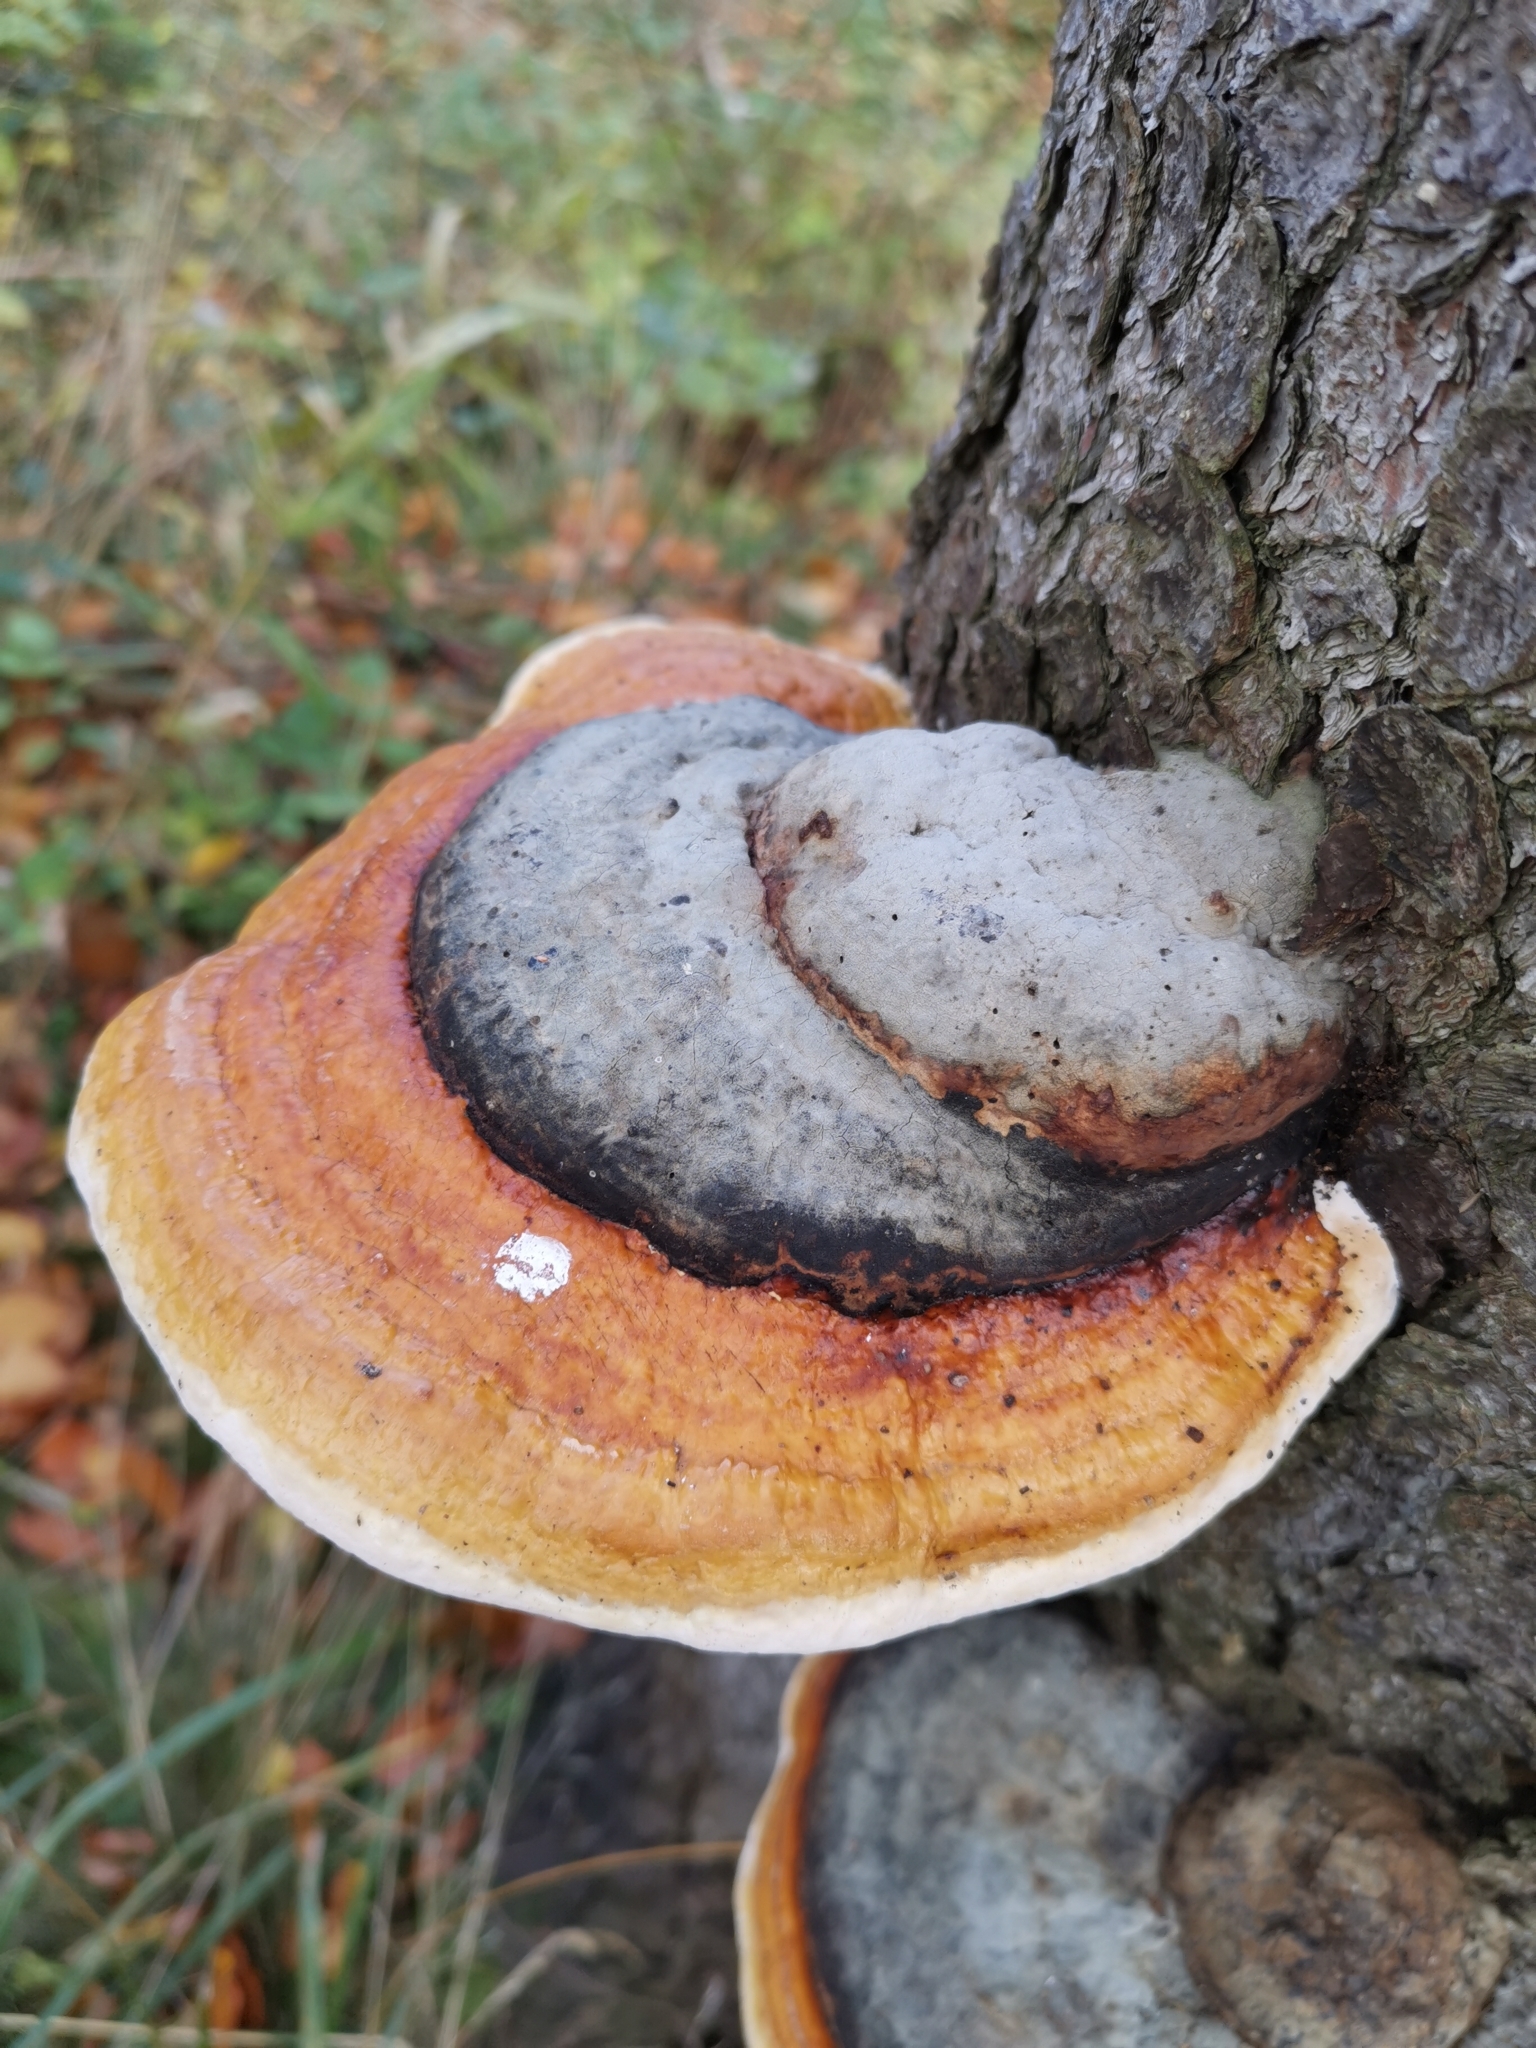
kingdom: Fungi
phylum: Basidiomycota
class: Agaricomycetes
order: Polyporales
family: Fomitopsidaceae
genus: Fomitopsis
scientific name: Fomitopsis pinicola
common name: Red-belted bracket
